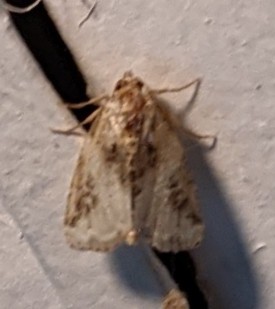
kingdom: Animalia
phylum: Arthropoda
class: Insecta
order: Lepidoptera
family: Noctuidae
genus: Pseudeustrotia
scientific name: Pseudeustrotia carneola
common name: Pink-barred lithacodia moth
